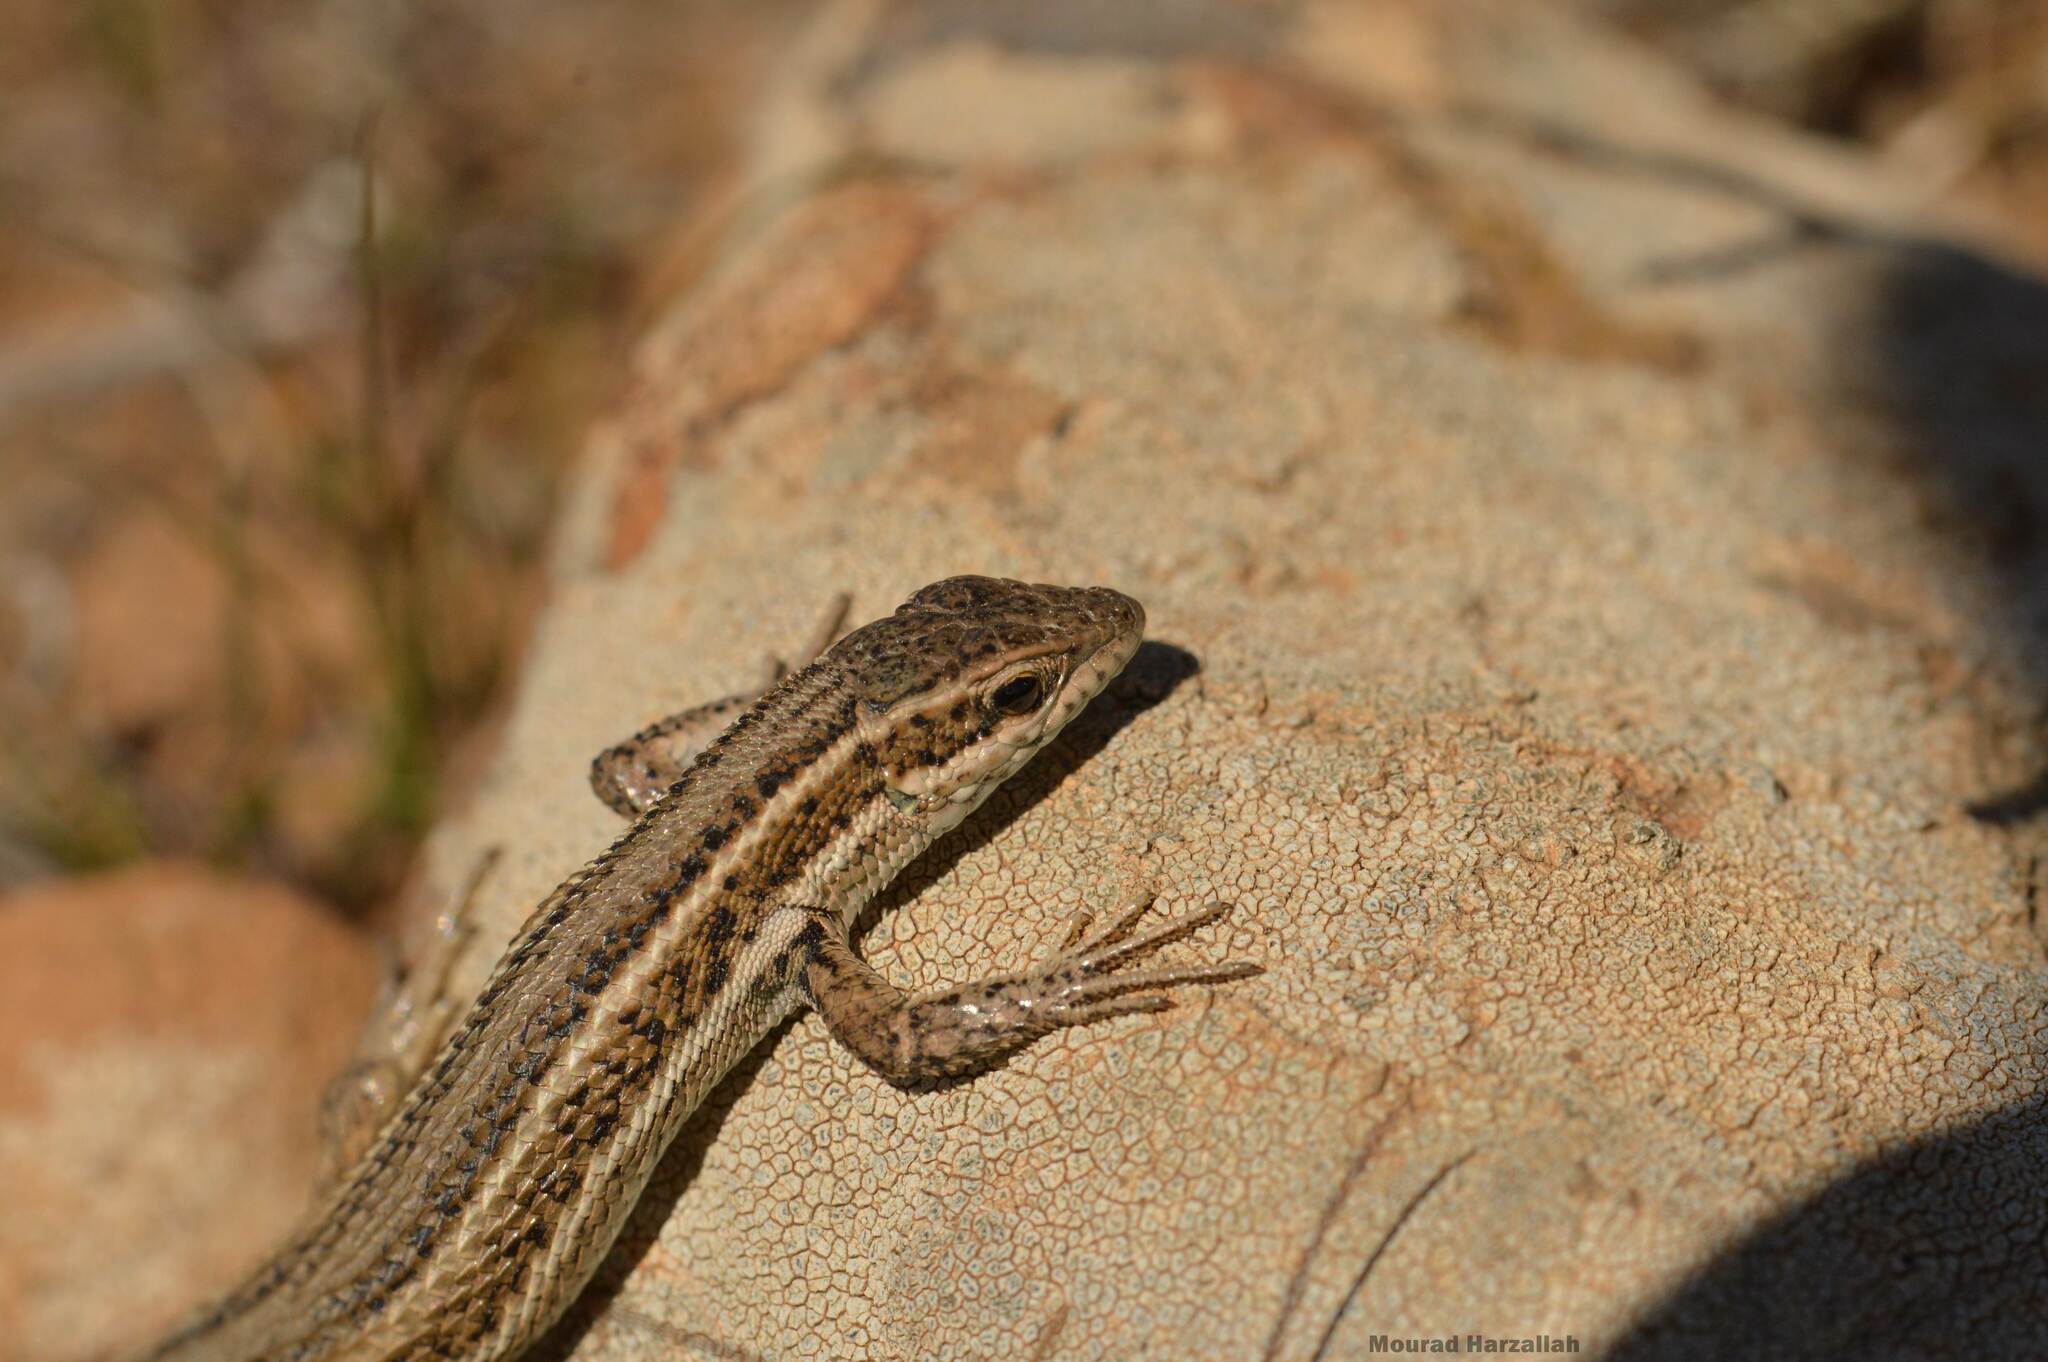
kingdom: Animalia
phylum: Chordata
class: Squamata
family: Lacertidae
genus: Ophisops
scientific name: Ophisops occidentalis
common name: Western snake-eyed lizard
